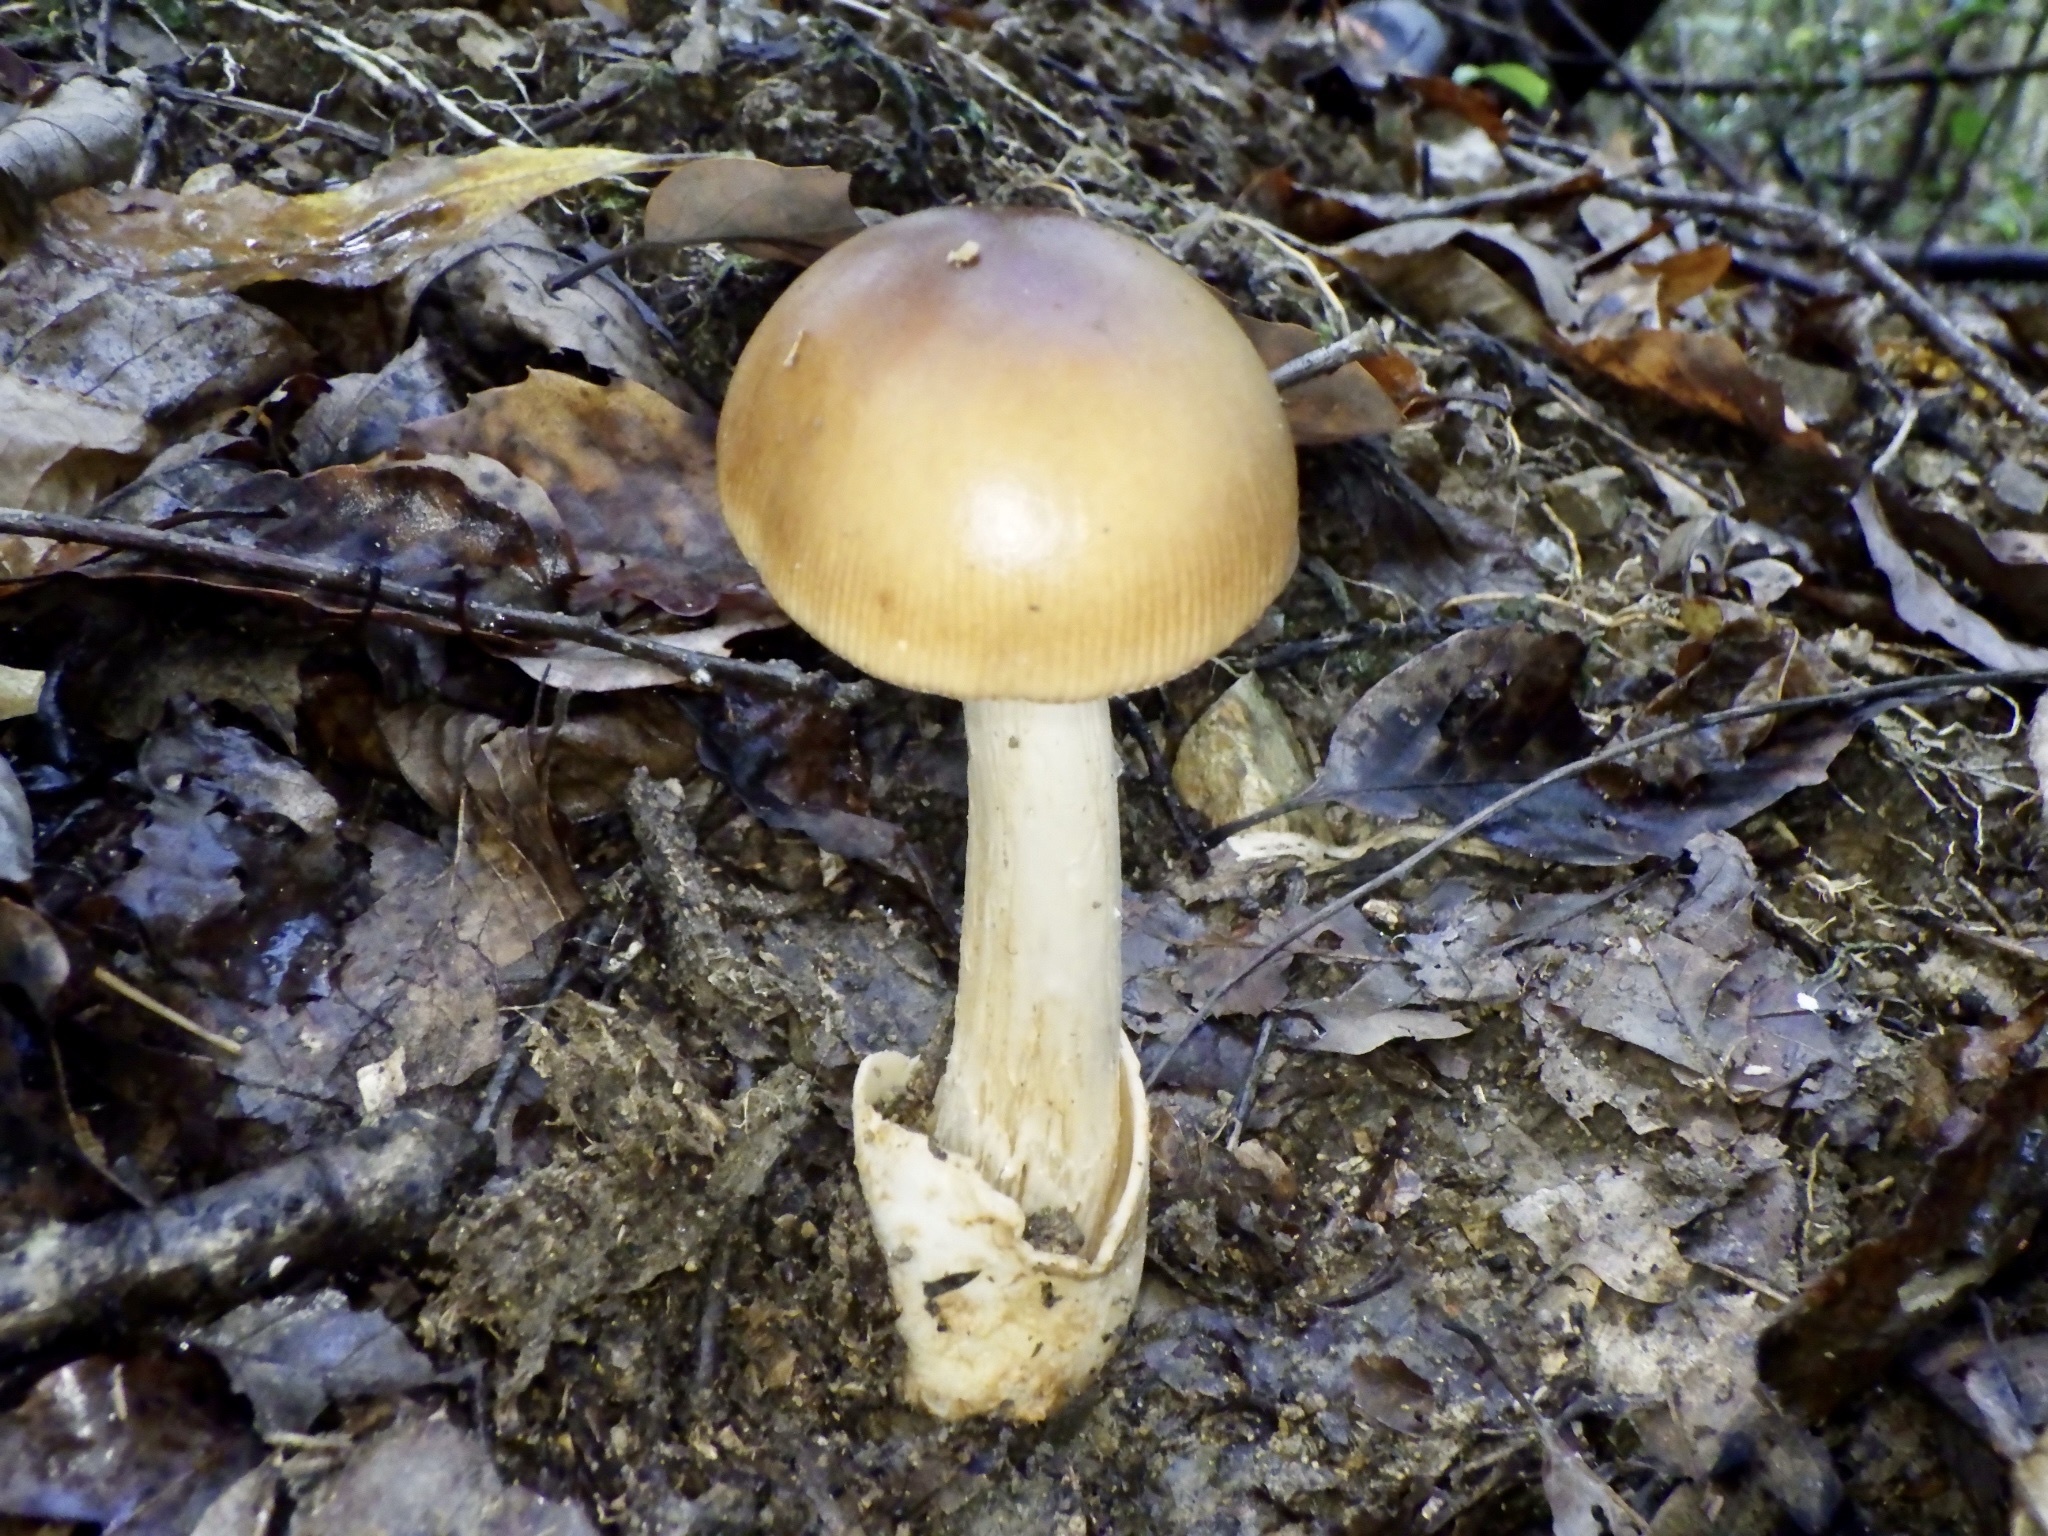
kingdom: Fungi
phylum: Basidiomycota
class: Agaricomycetes
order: Agaricales
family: Amanitaceae
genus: Amanita
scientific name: Amanita fulva
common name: Tawny grisette
